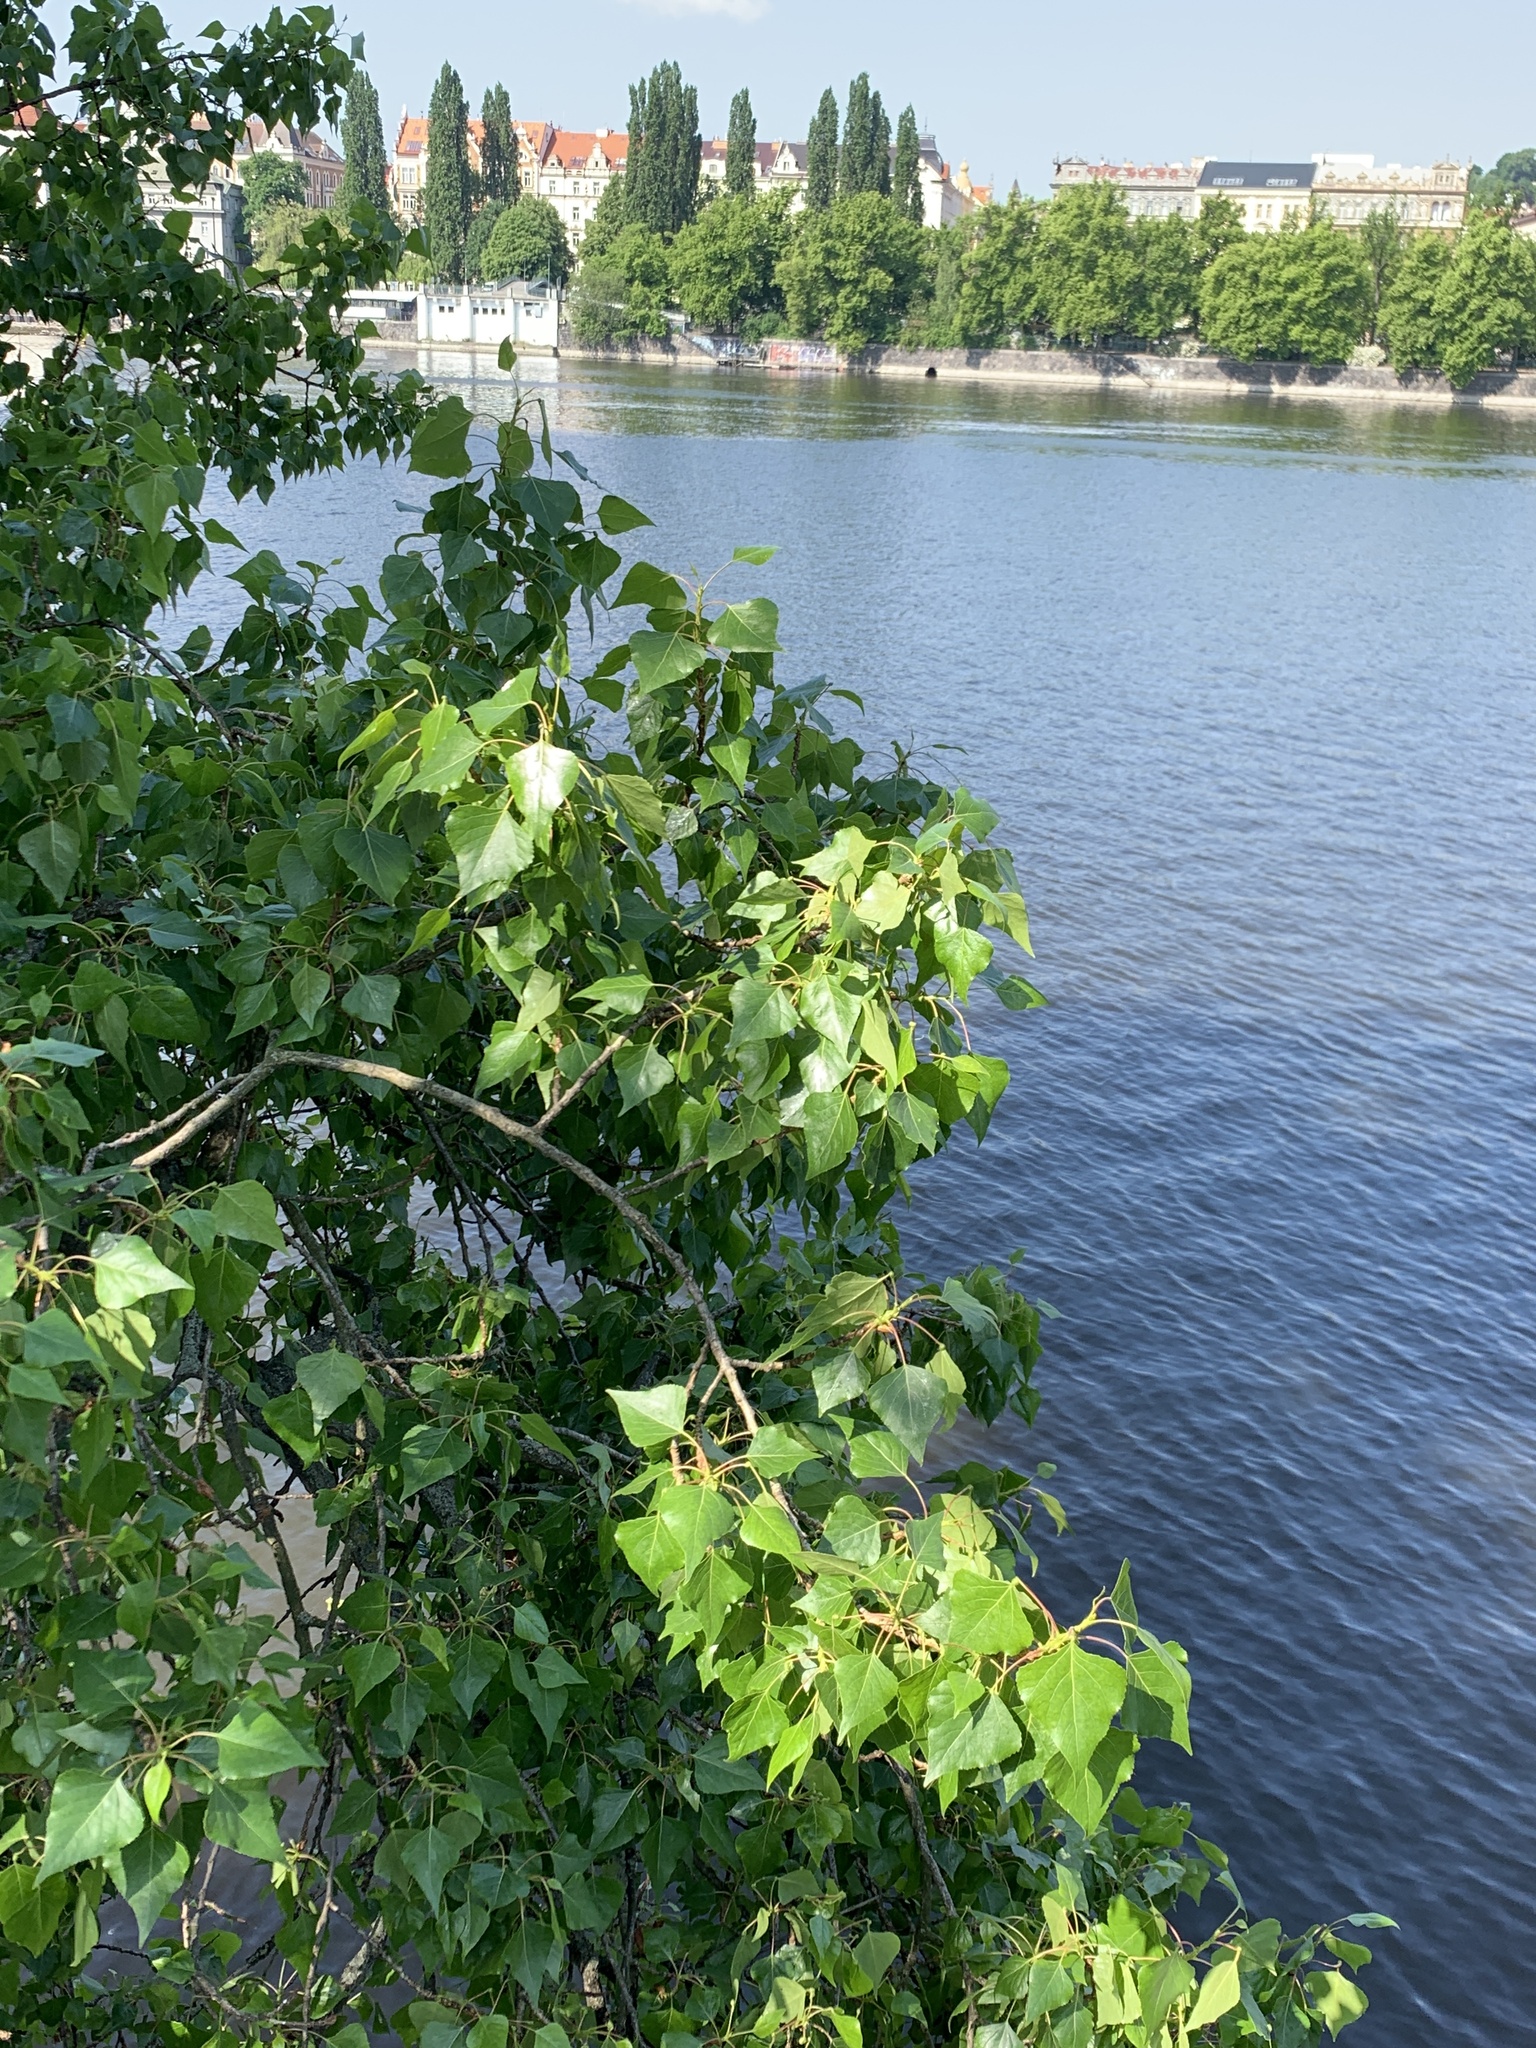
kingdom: Plantae
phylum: Tracheophyta
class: Magnoliopsida
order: Malpighiales
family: Salicaceae
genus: Populus
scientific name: Populus nigra
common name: Black poplar
